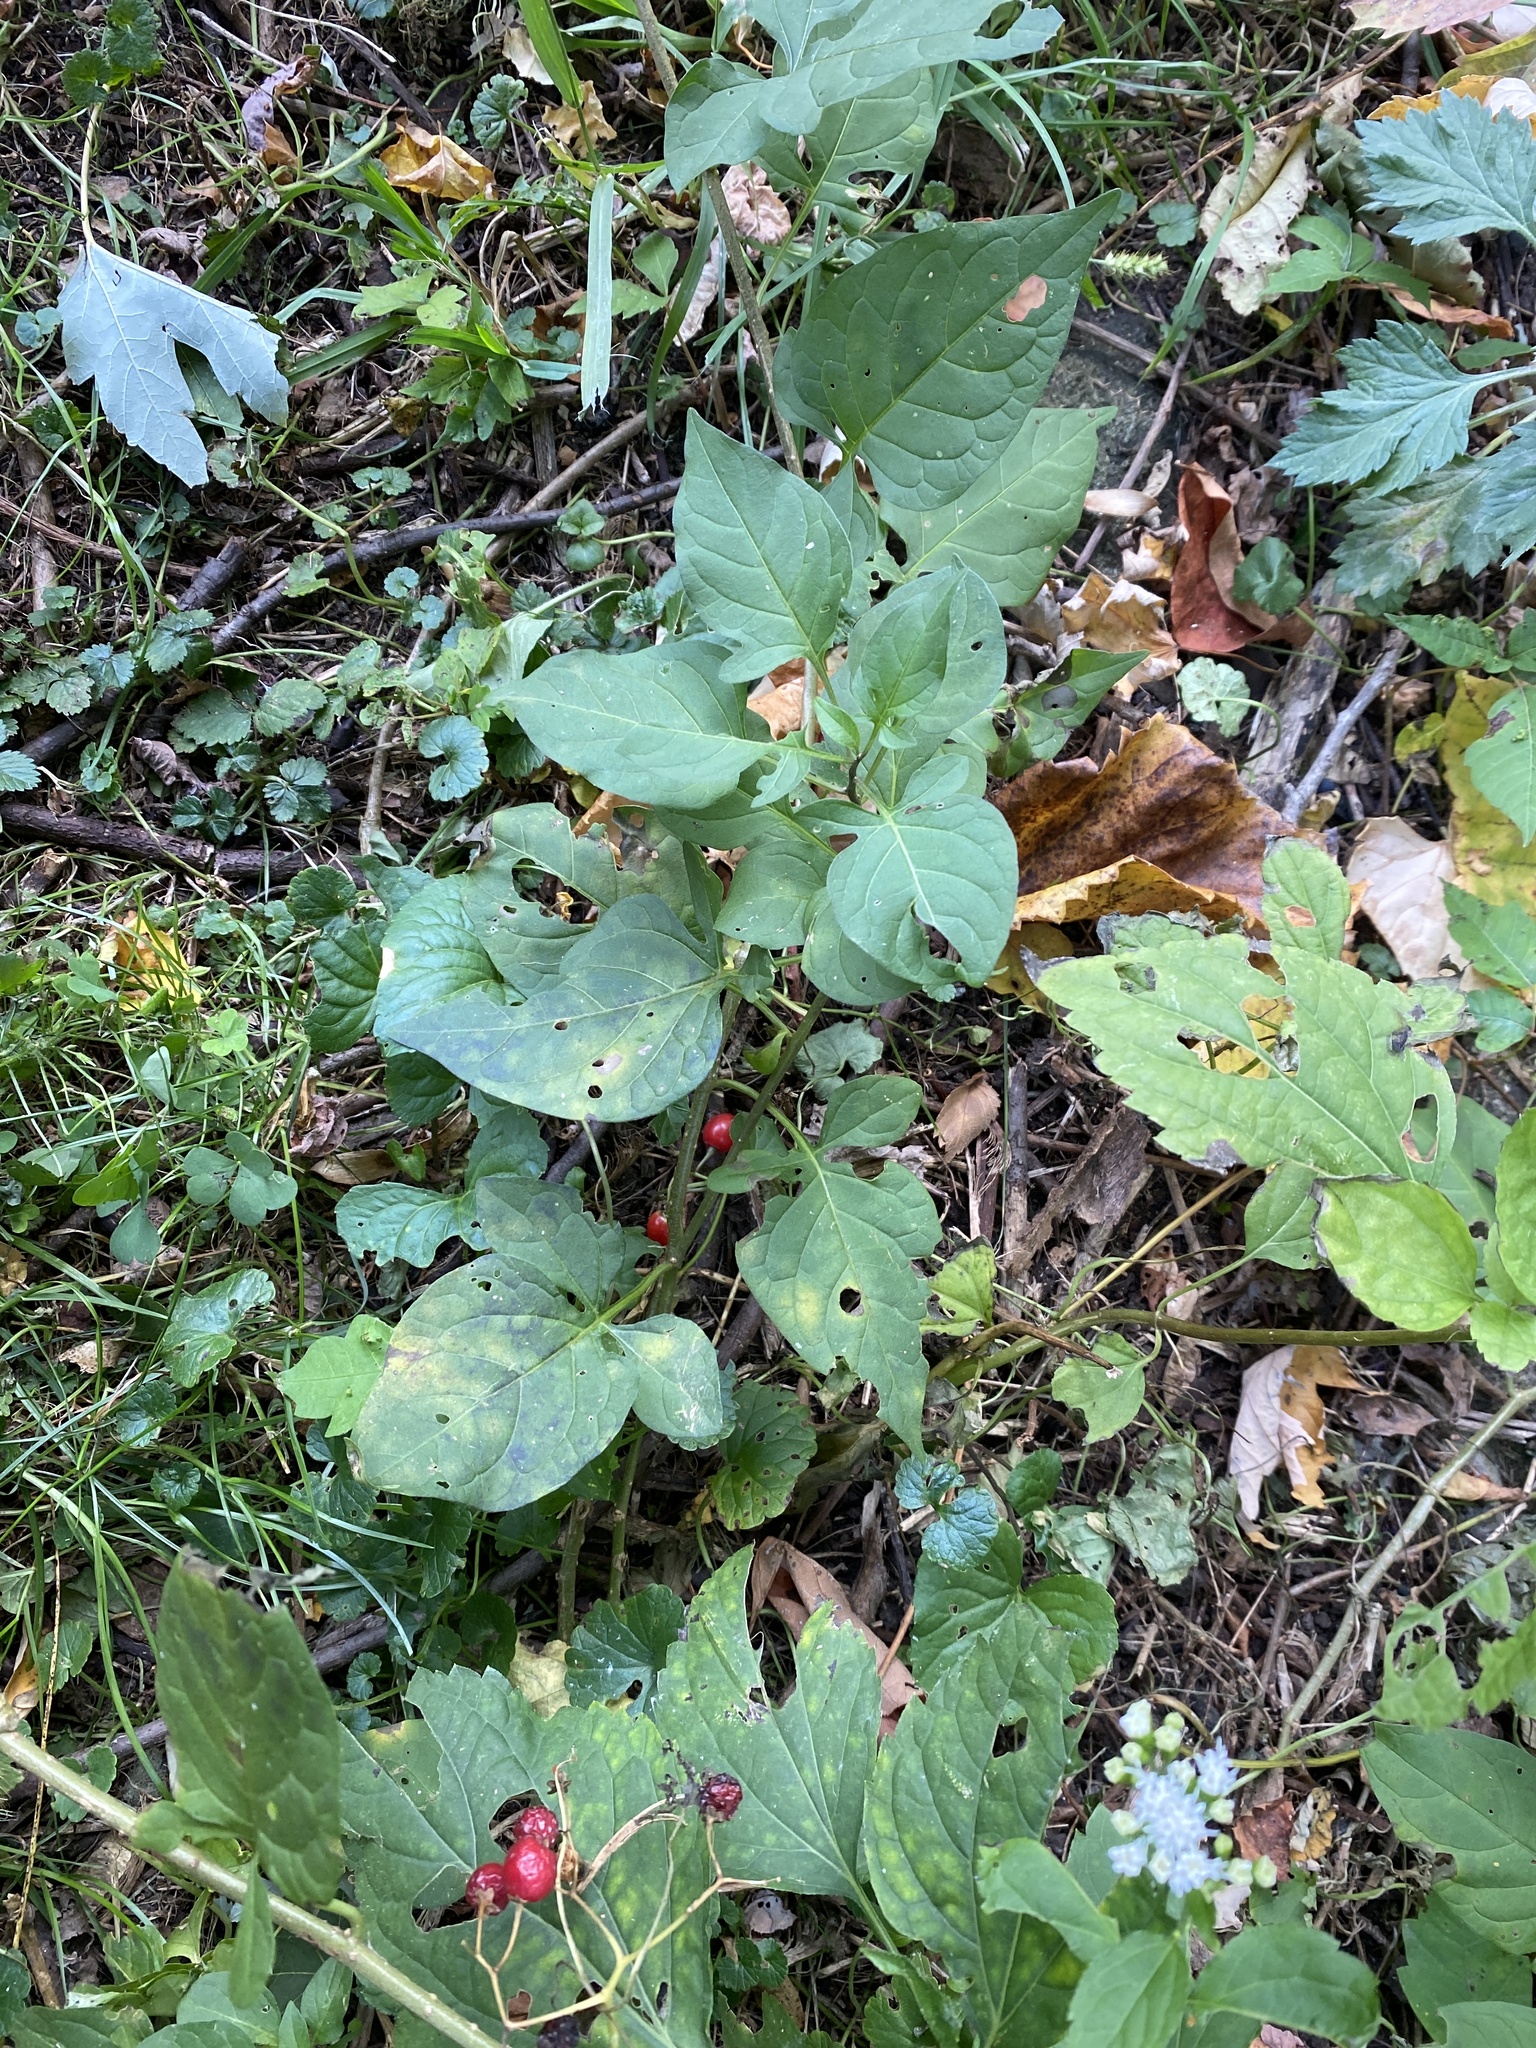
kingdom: Plantae
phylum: Tracheophyta
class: Magnoliopsida
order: Solanales
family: Solanaceae
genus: Solanum
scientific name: Solanum dulcamara
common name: Climbing nightshade
